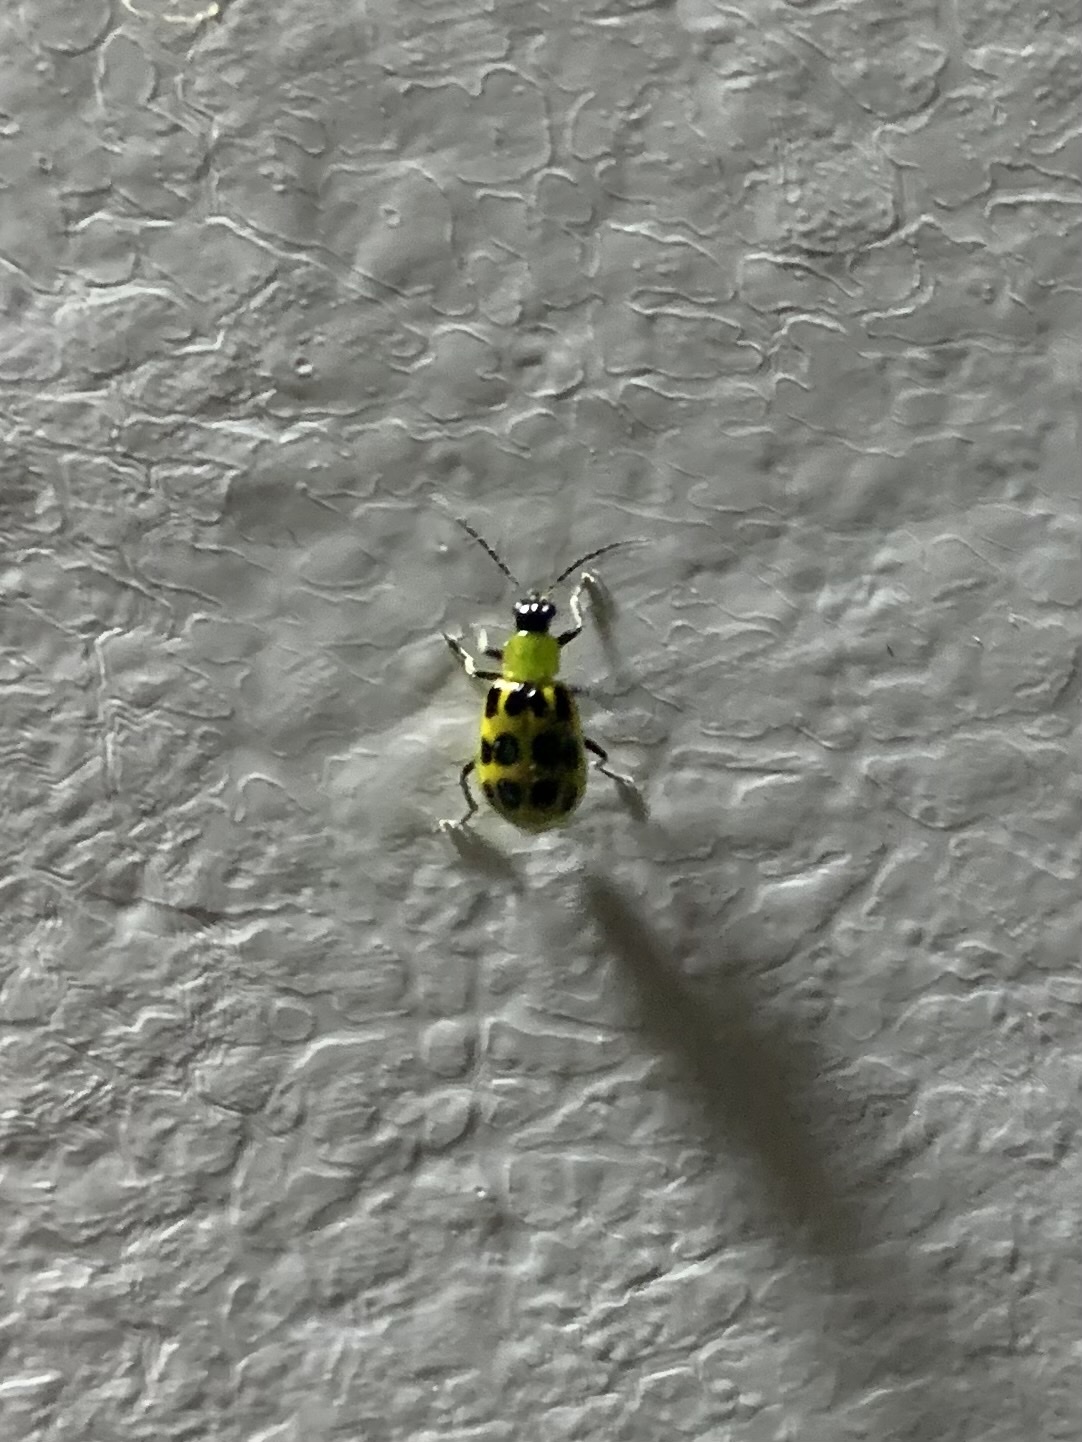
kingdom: Animalia
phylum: Arthropoda
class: Insecta
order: Coleoptera
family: Chrysomelidae
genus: Diabrotica
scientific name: Diabrotica undecimpunctata
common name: Spotted cucumber beetle
